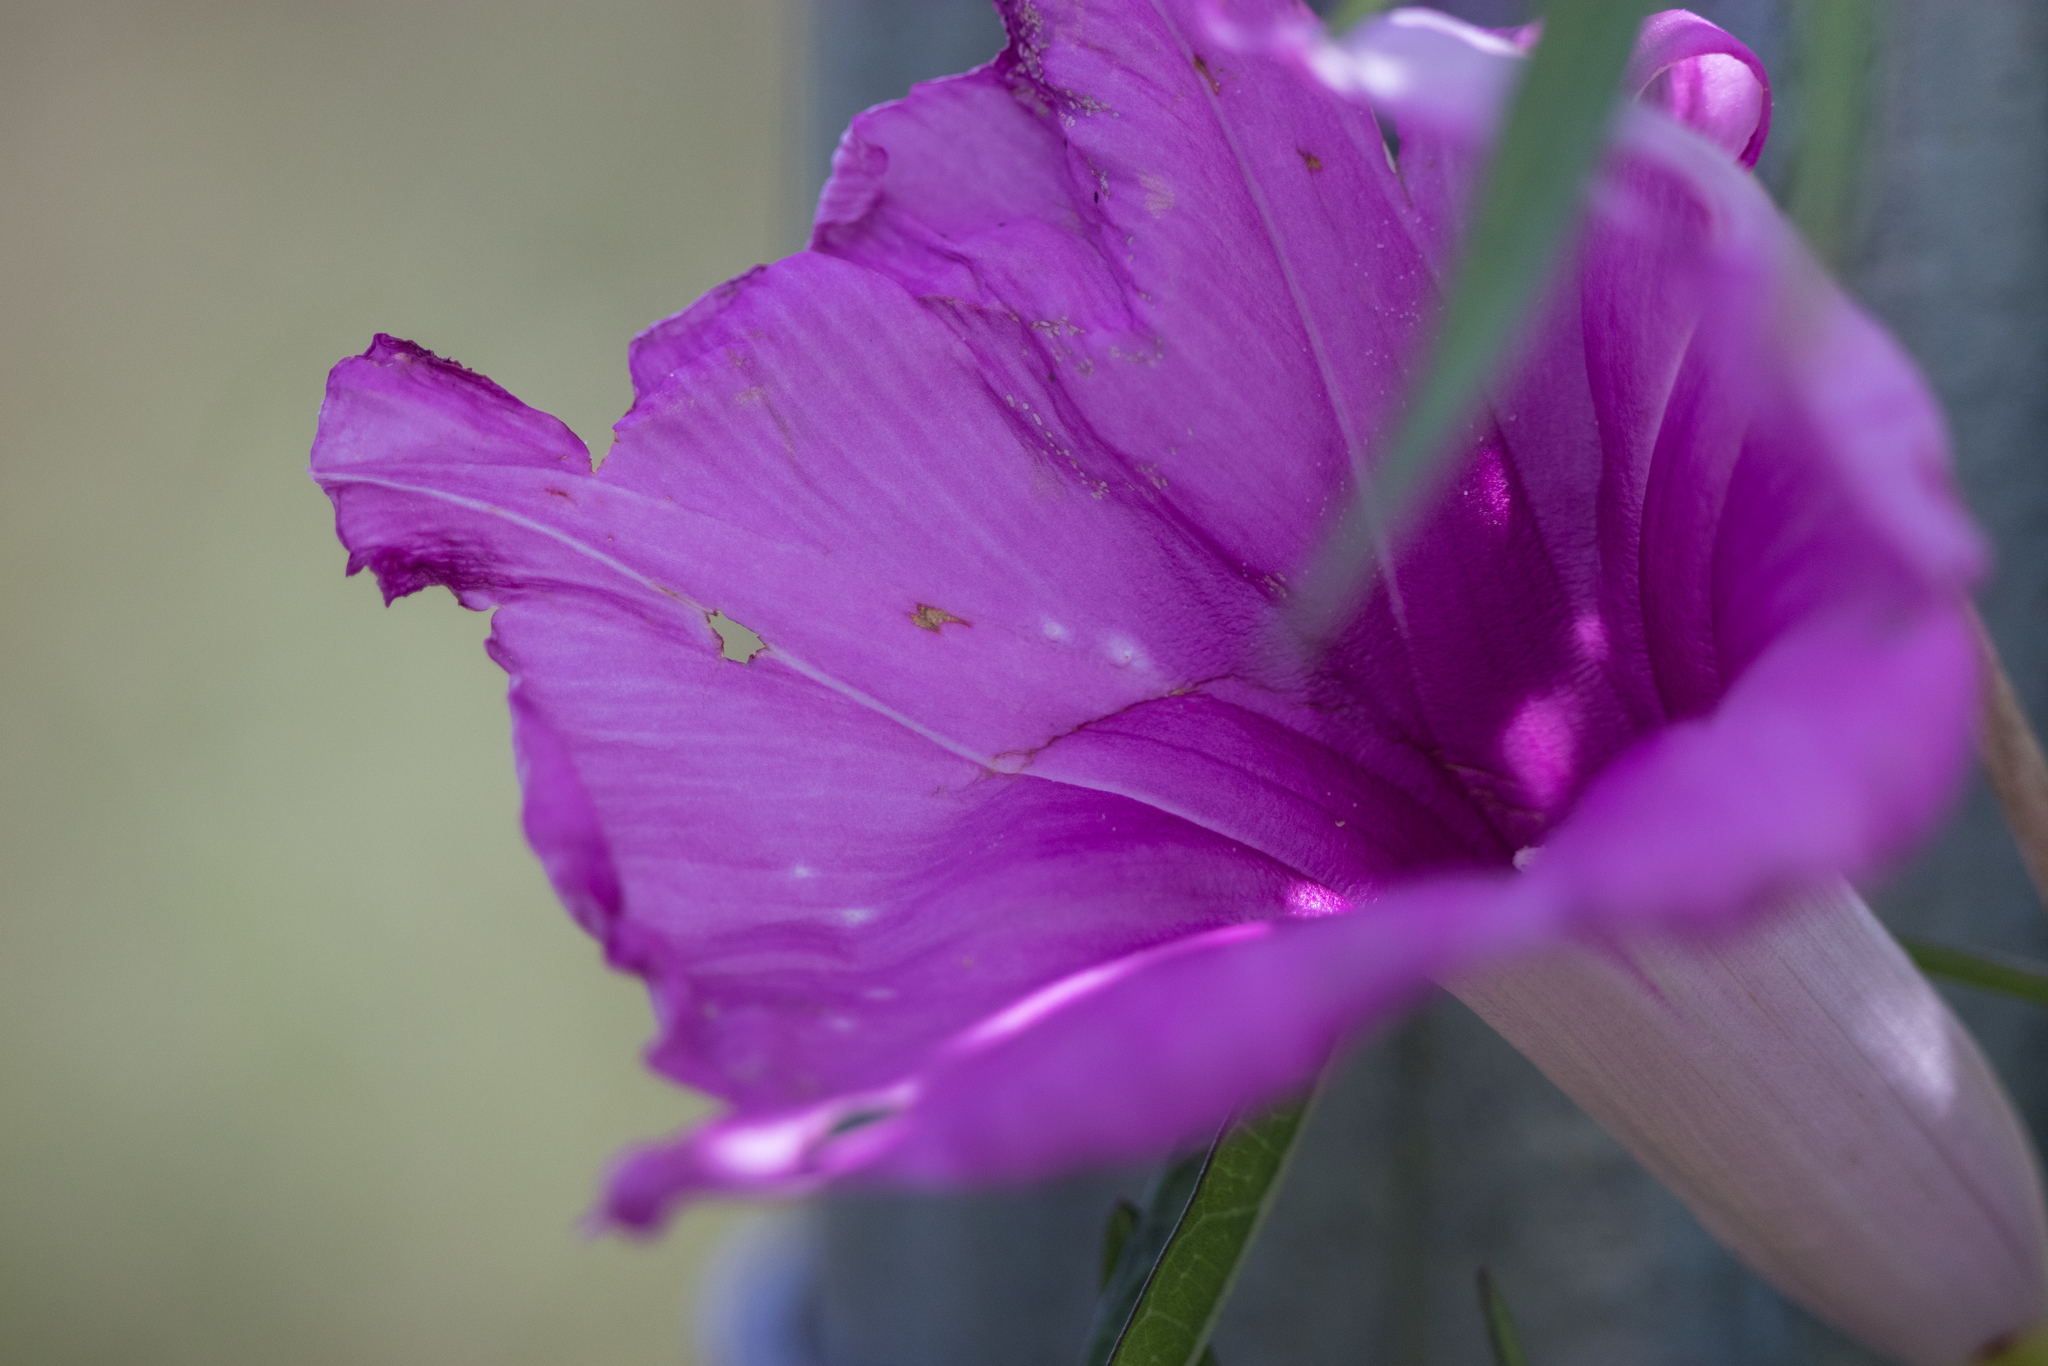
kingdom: Plantae
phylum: Tracheophyta
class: Magnoliopsida
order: Solanales
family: Convolvulaceae
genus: Ipomoea
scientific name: Ipomoea sagittata
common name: Saltmarsh morning glory
